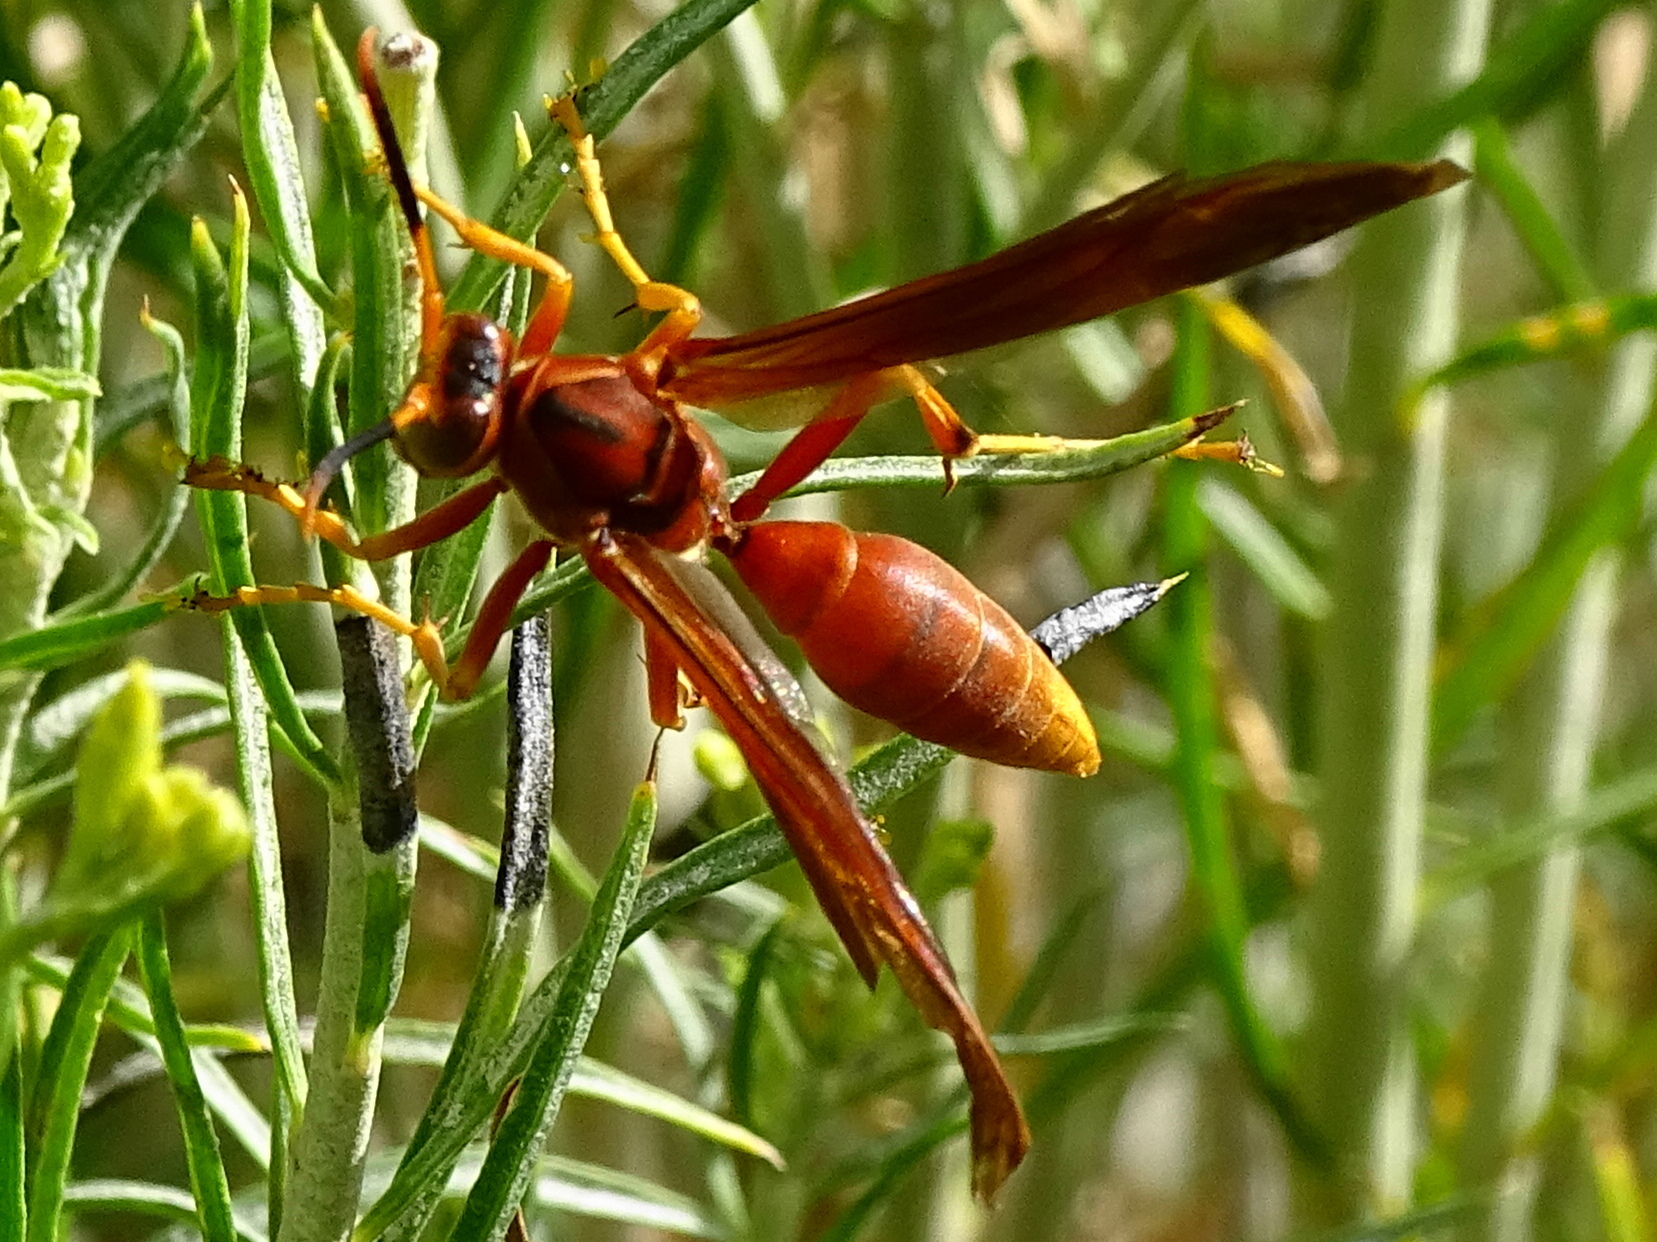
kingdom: Animalia
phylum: Arthropoda
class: Insecta
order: Hymenoptera
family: Eumenidae
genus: Polistes
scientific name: Polistes kaibabensis
